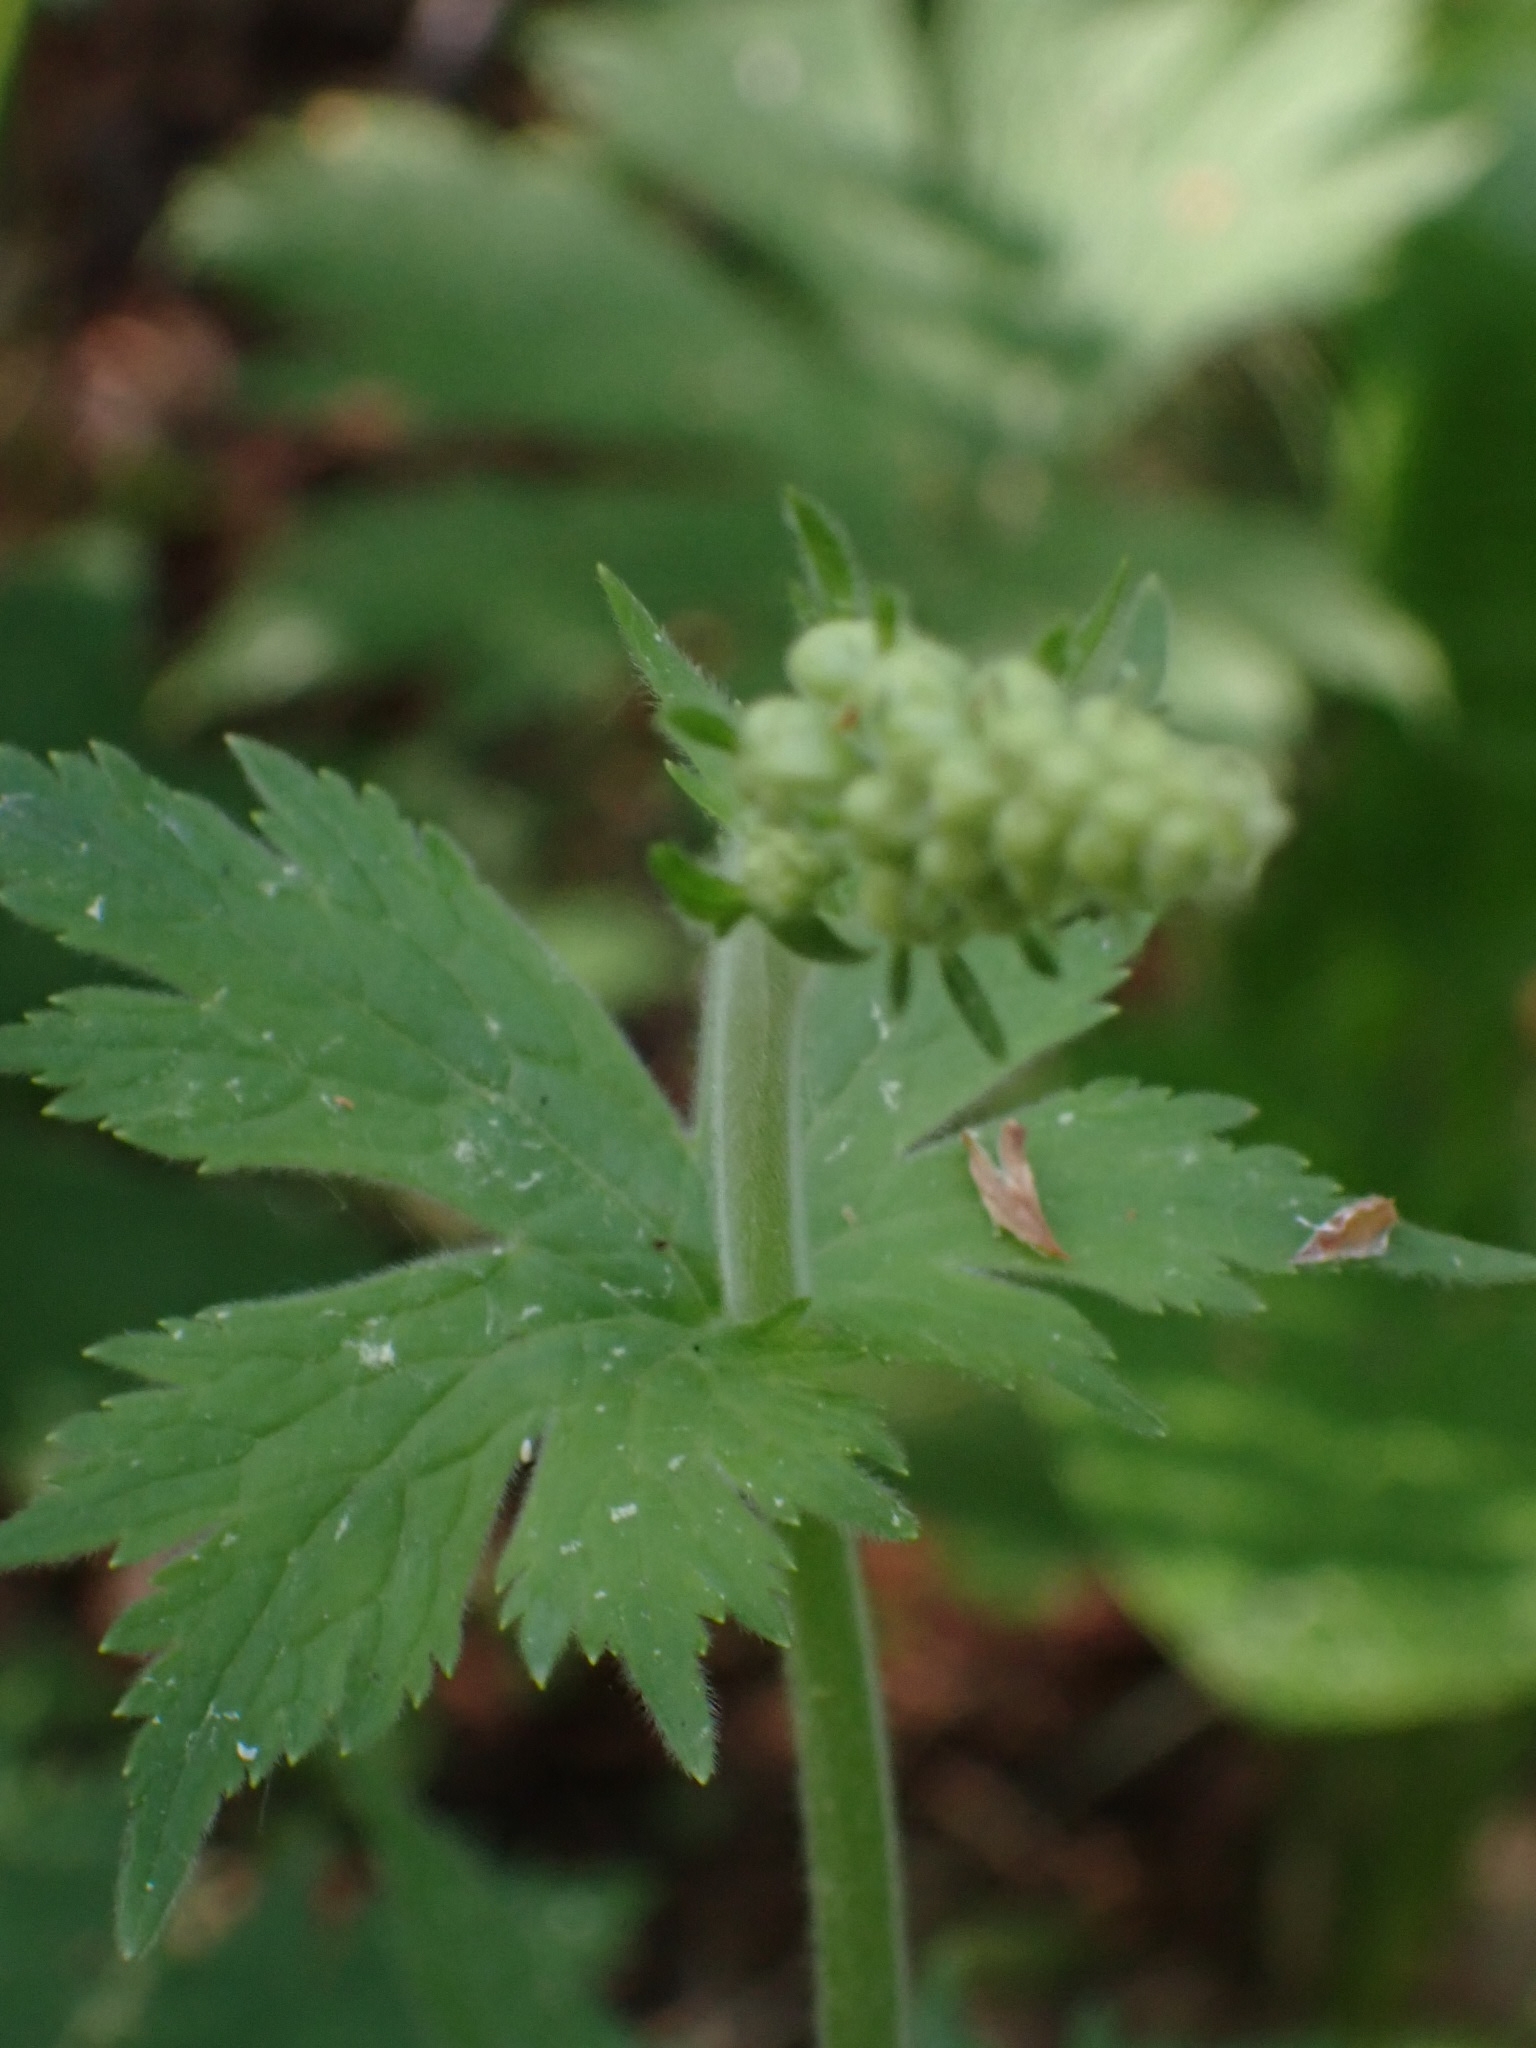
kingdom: Plantae
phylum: Tracheophyta
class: Magnoliopsida
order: Ranunculales
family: Ranunculaceae
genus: Aconitum
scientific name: Aconitum septentrionale
